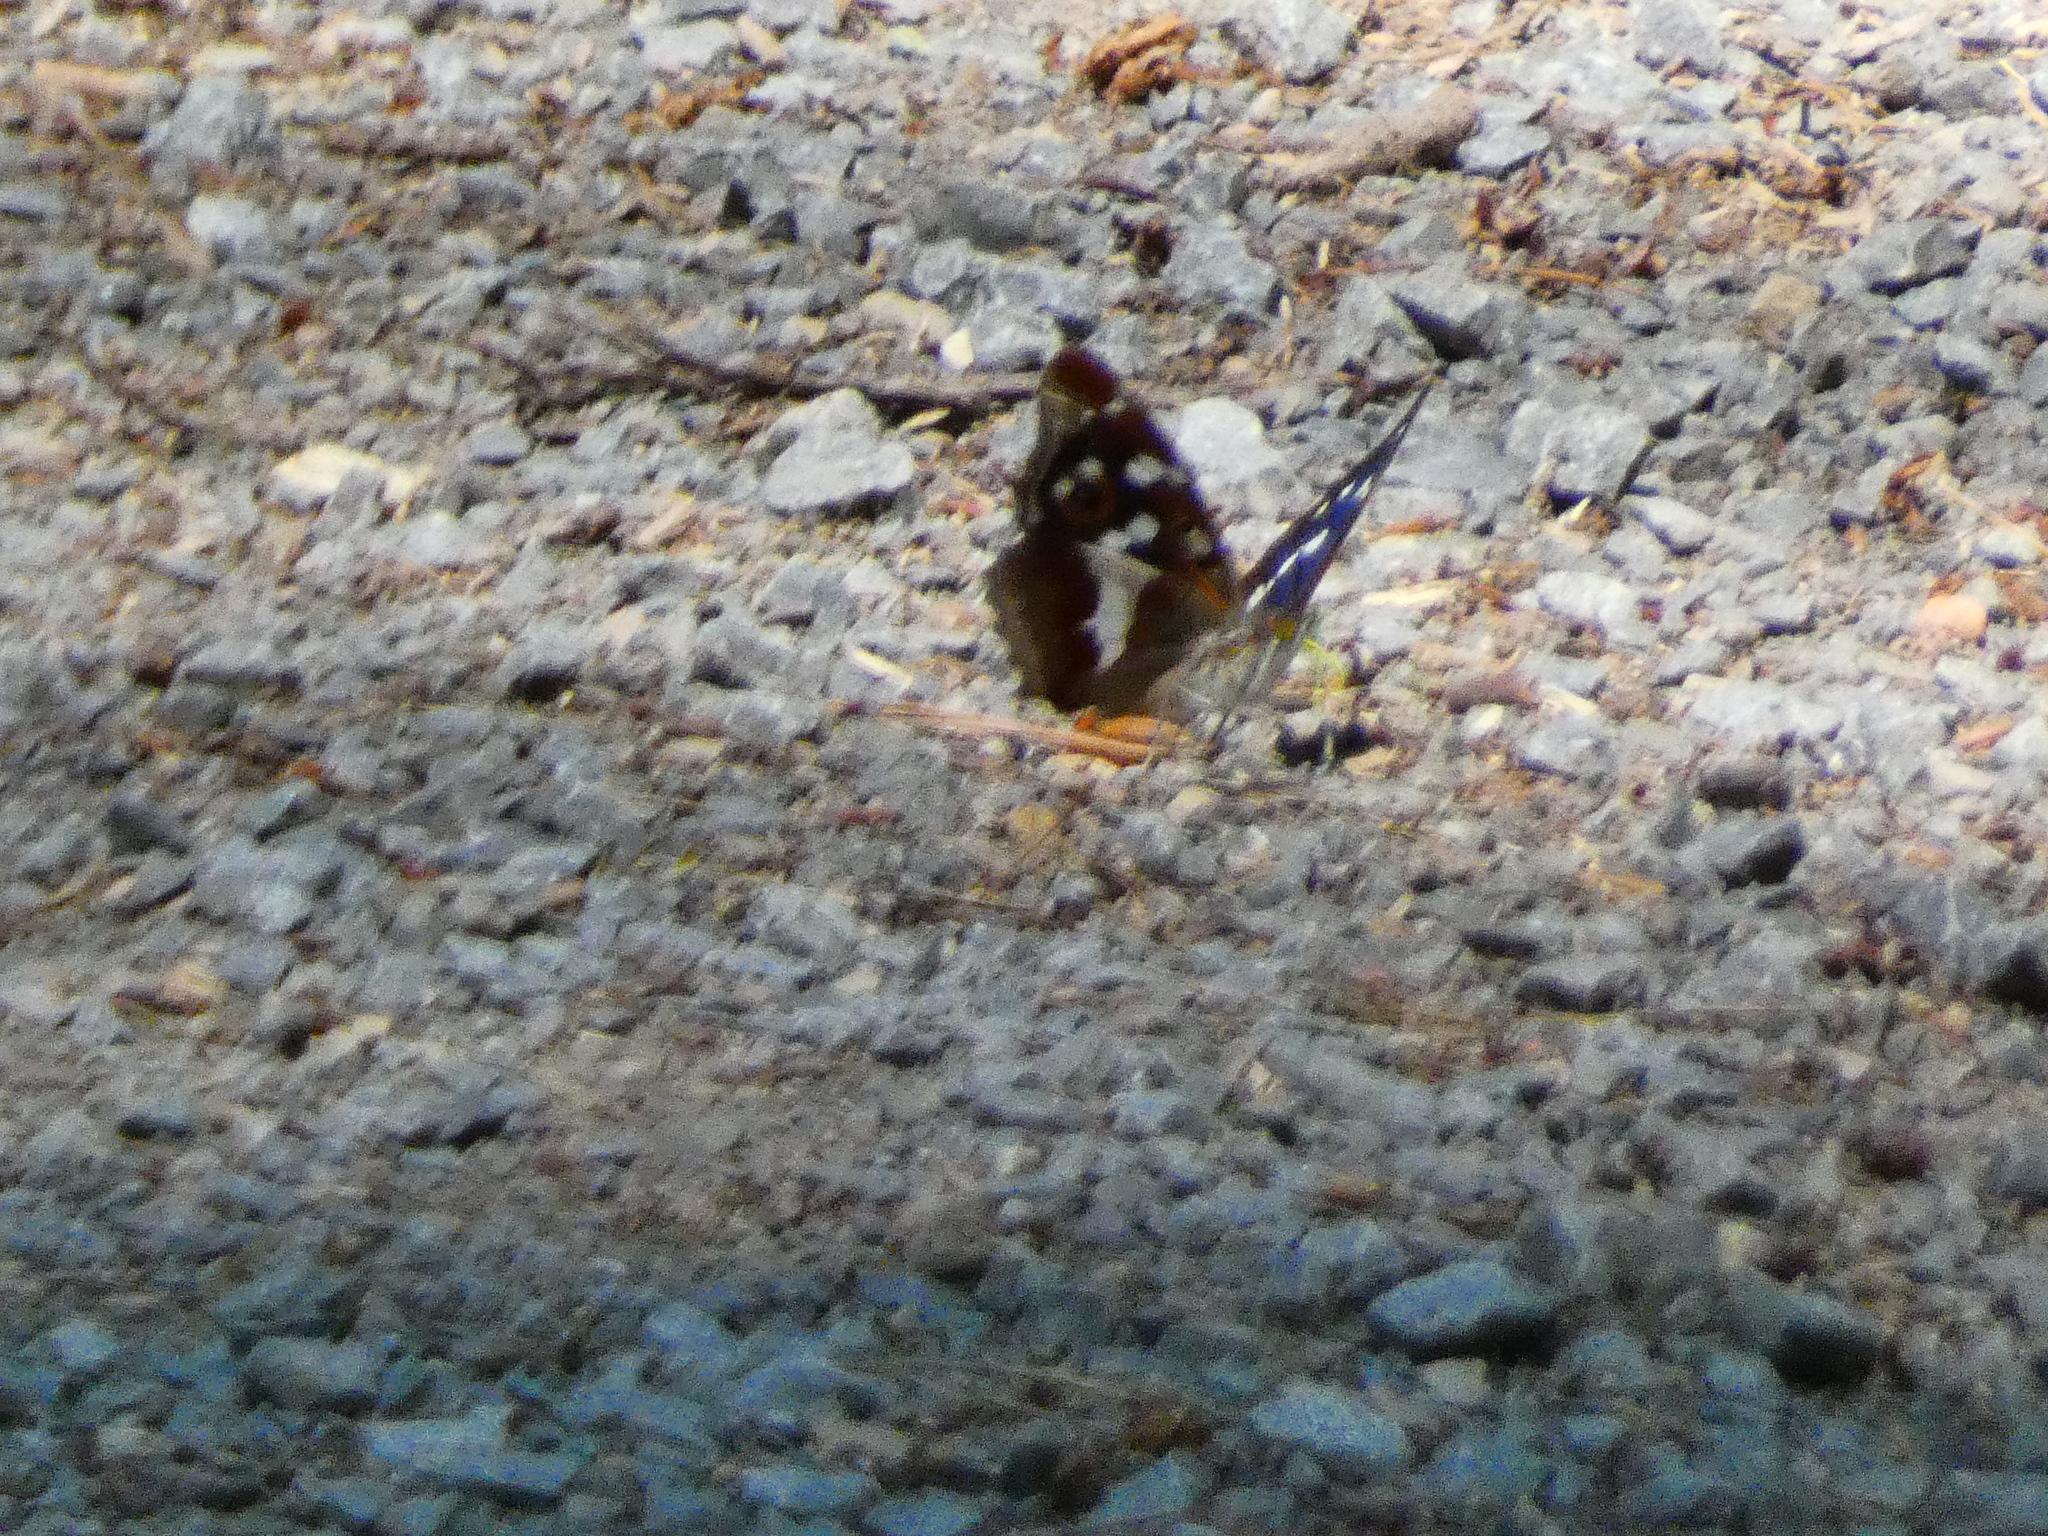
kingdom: Animalia
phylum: Arthropoda
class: Insecta
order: Lepidoptera
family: Nymphalidae
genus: Apatura
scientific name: Apatura iris
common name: Purple emperor
